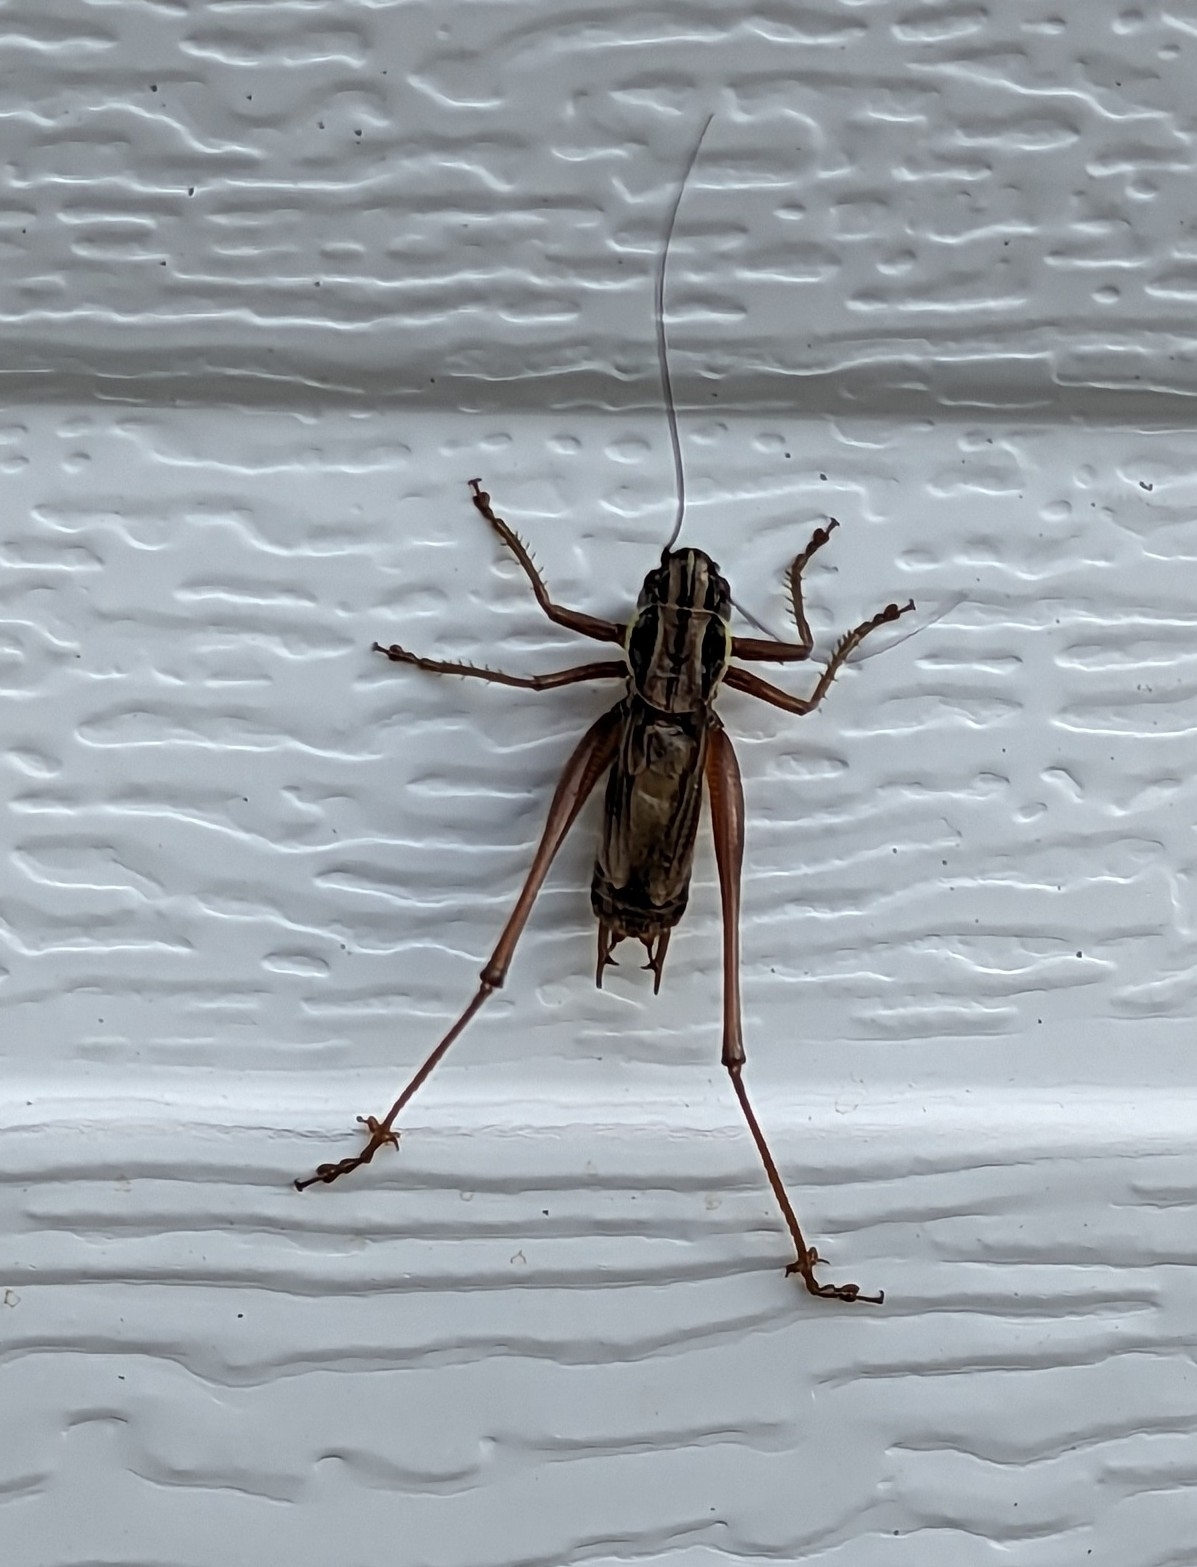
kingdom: Animalia
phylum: Arthropoda
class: Insecta
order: Orthoptera
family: Tettigoniidae
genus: Roeseliana
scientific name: Roeseliana roeselii
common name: Roesel's bush cricket
